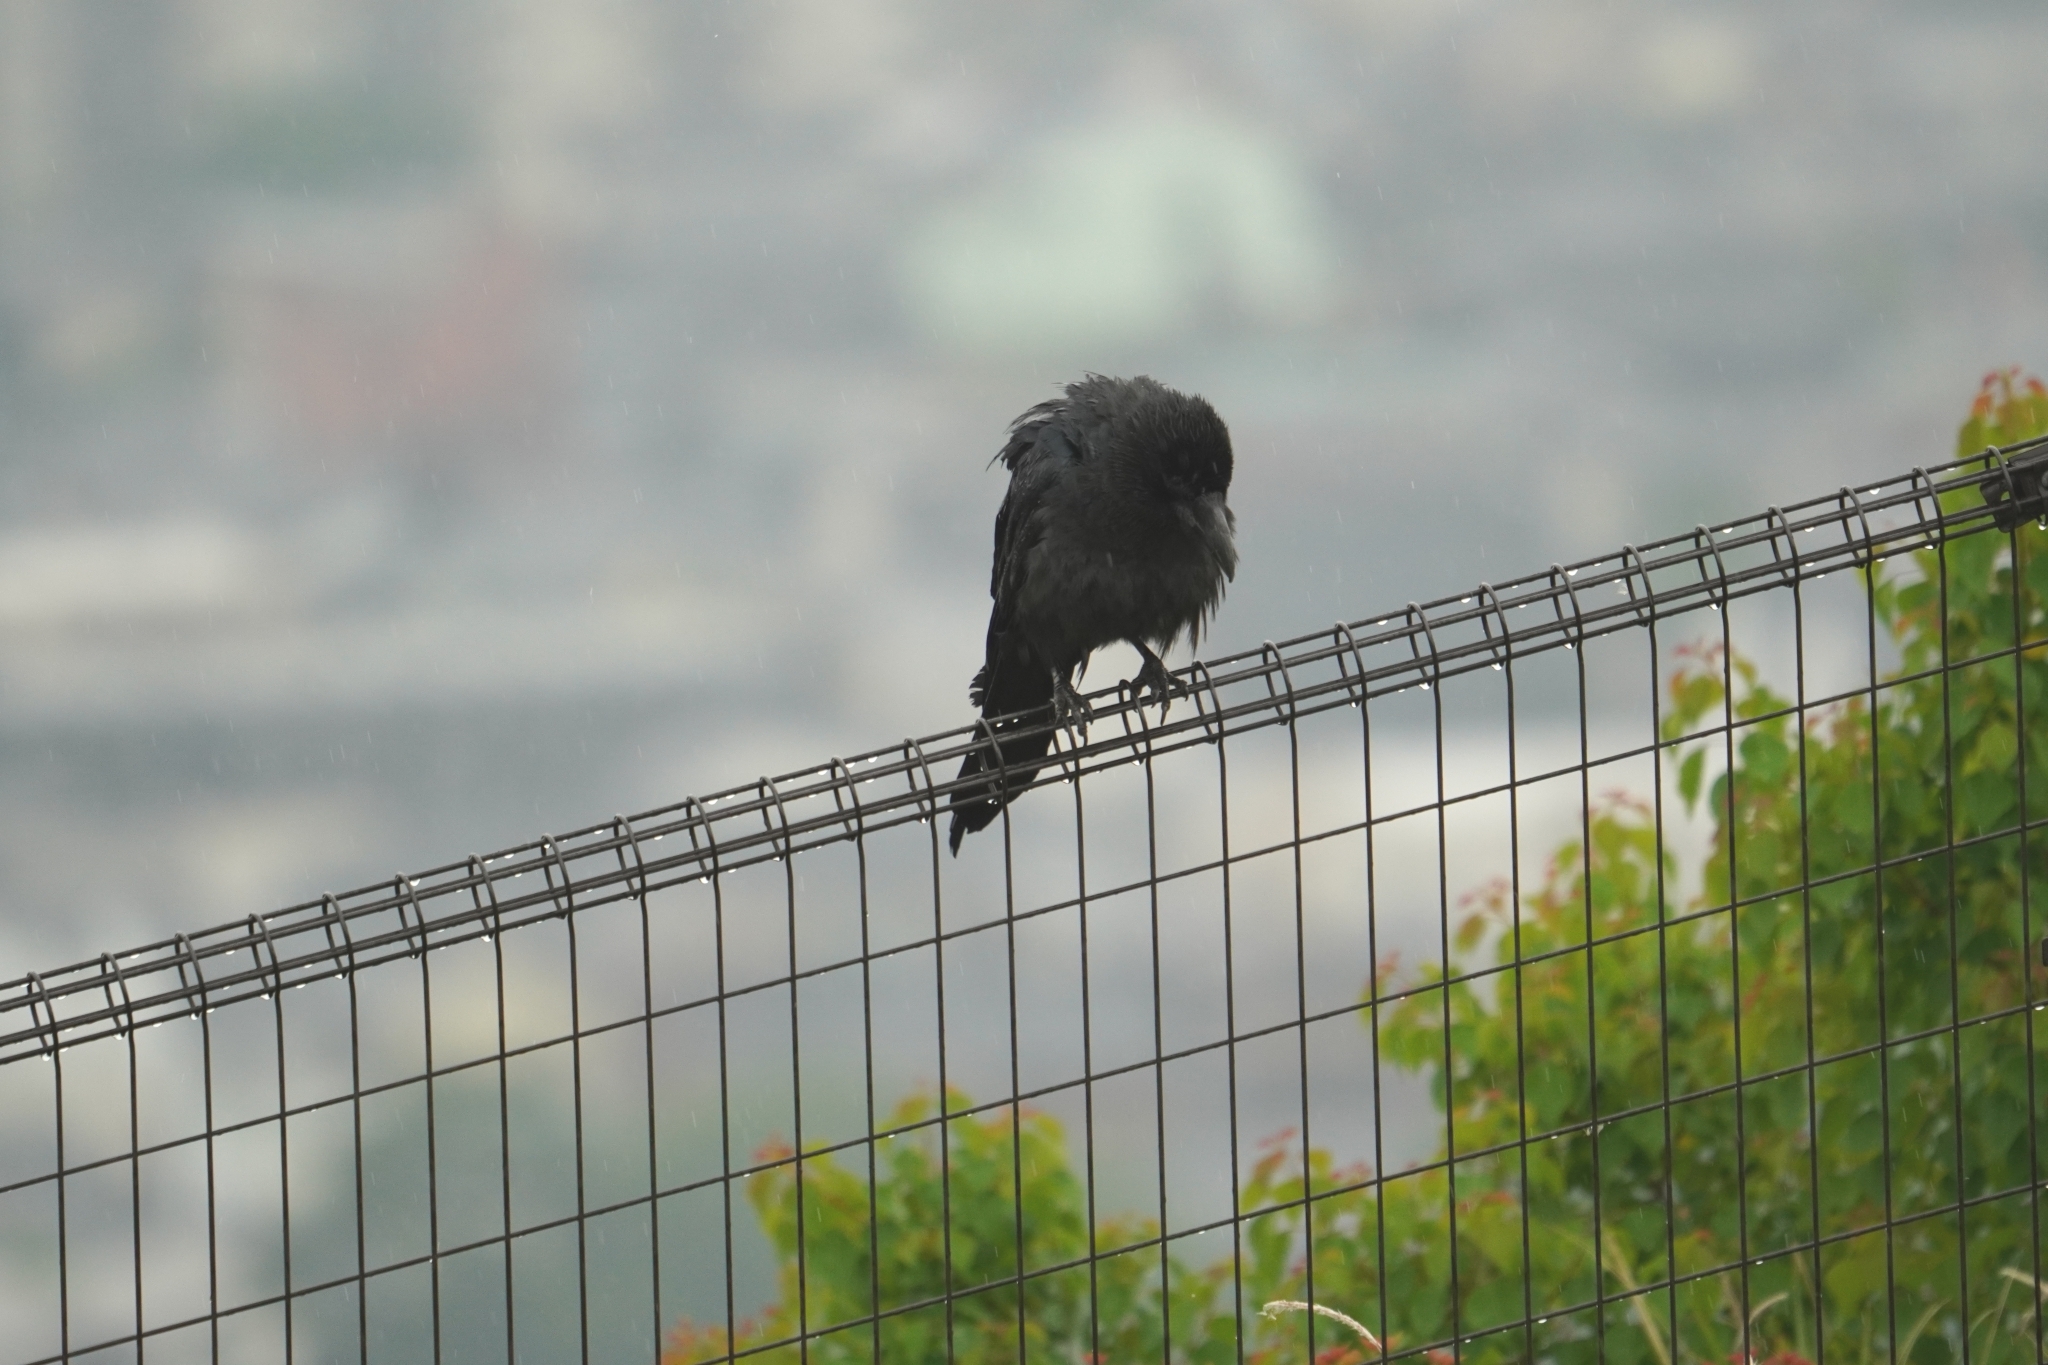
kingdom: Animalia
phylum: Chordata
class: Aves
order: Passeriformes
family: Corvidae
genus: Corvus
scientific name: Corvus macrorhynchos
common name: Large-billed crow
